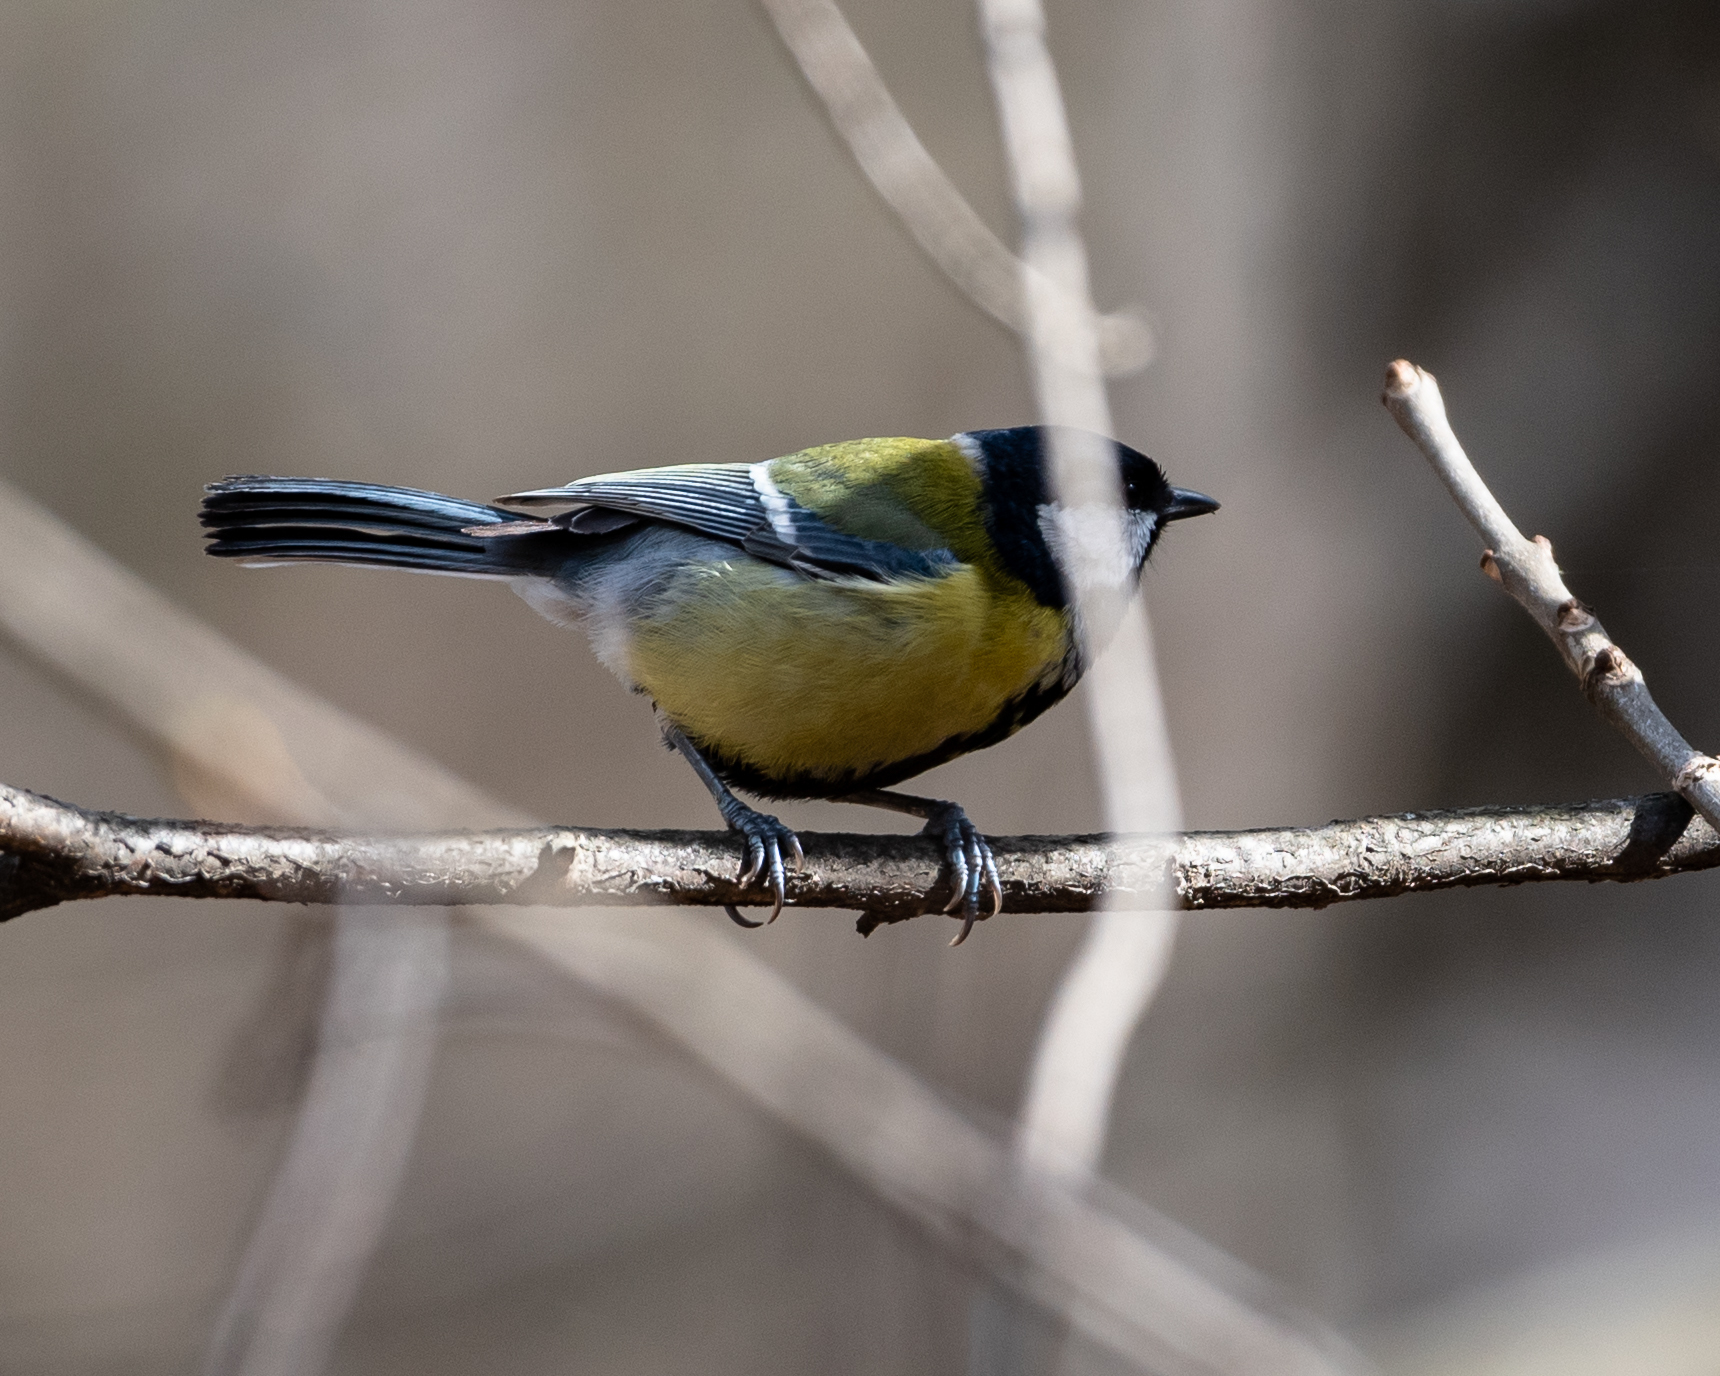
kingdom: Animalia
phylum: Chordata
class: Aves
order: Passeriformes
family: Paridae
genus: Parus
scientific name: Parus major
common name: Great tit
